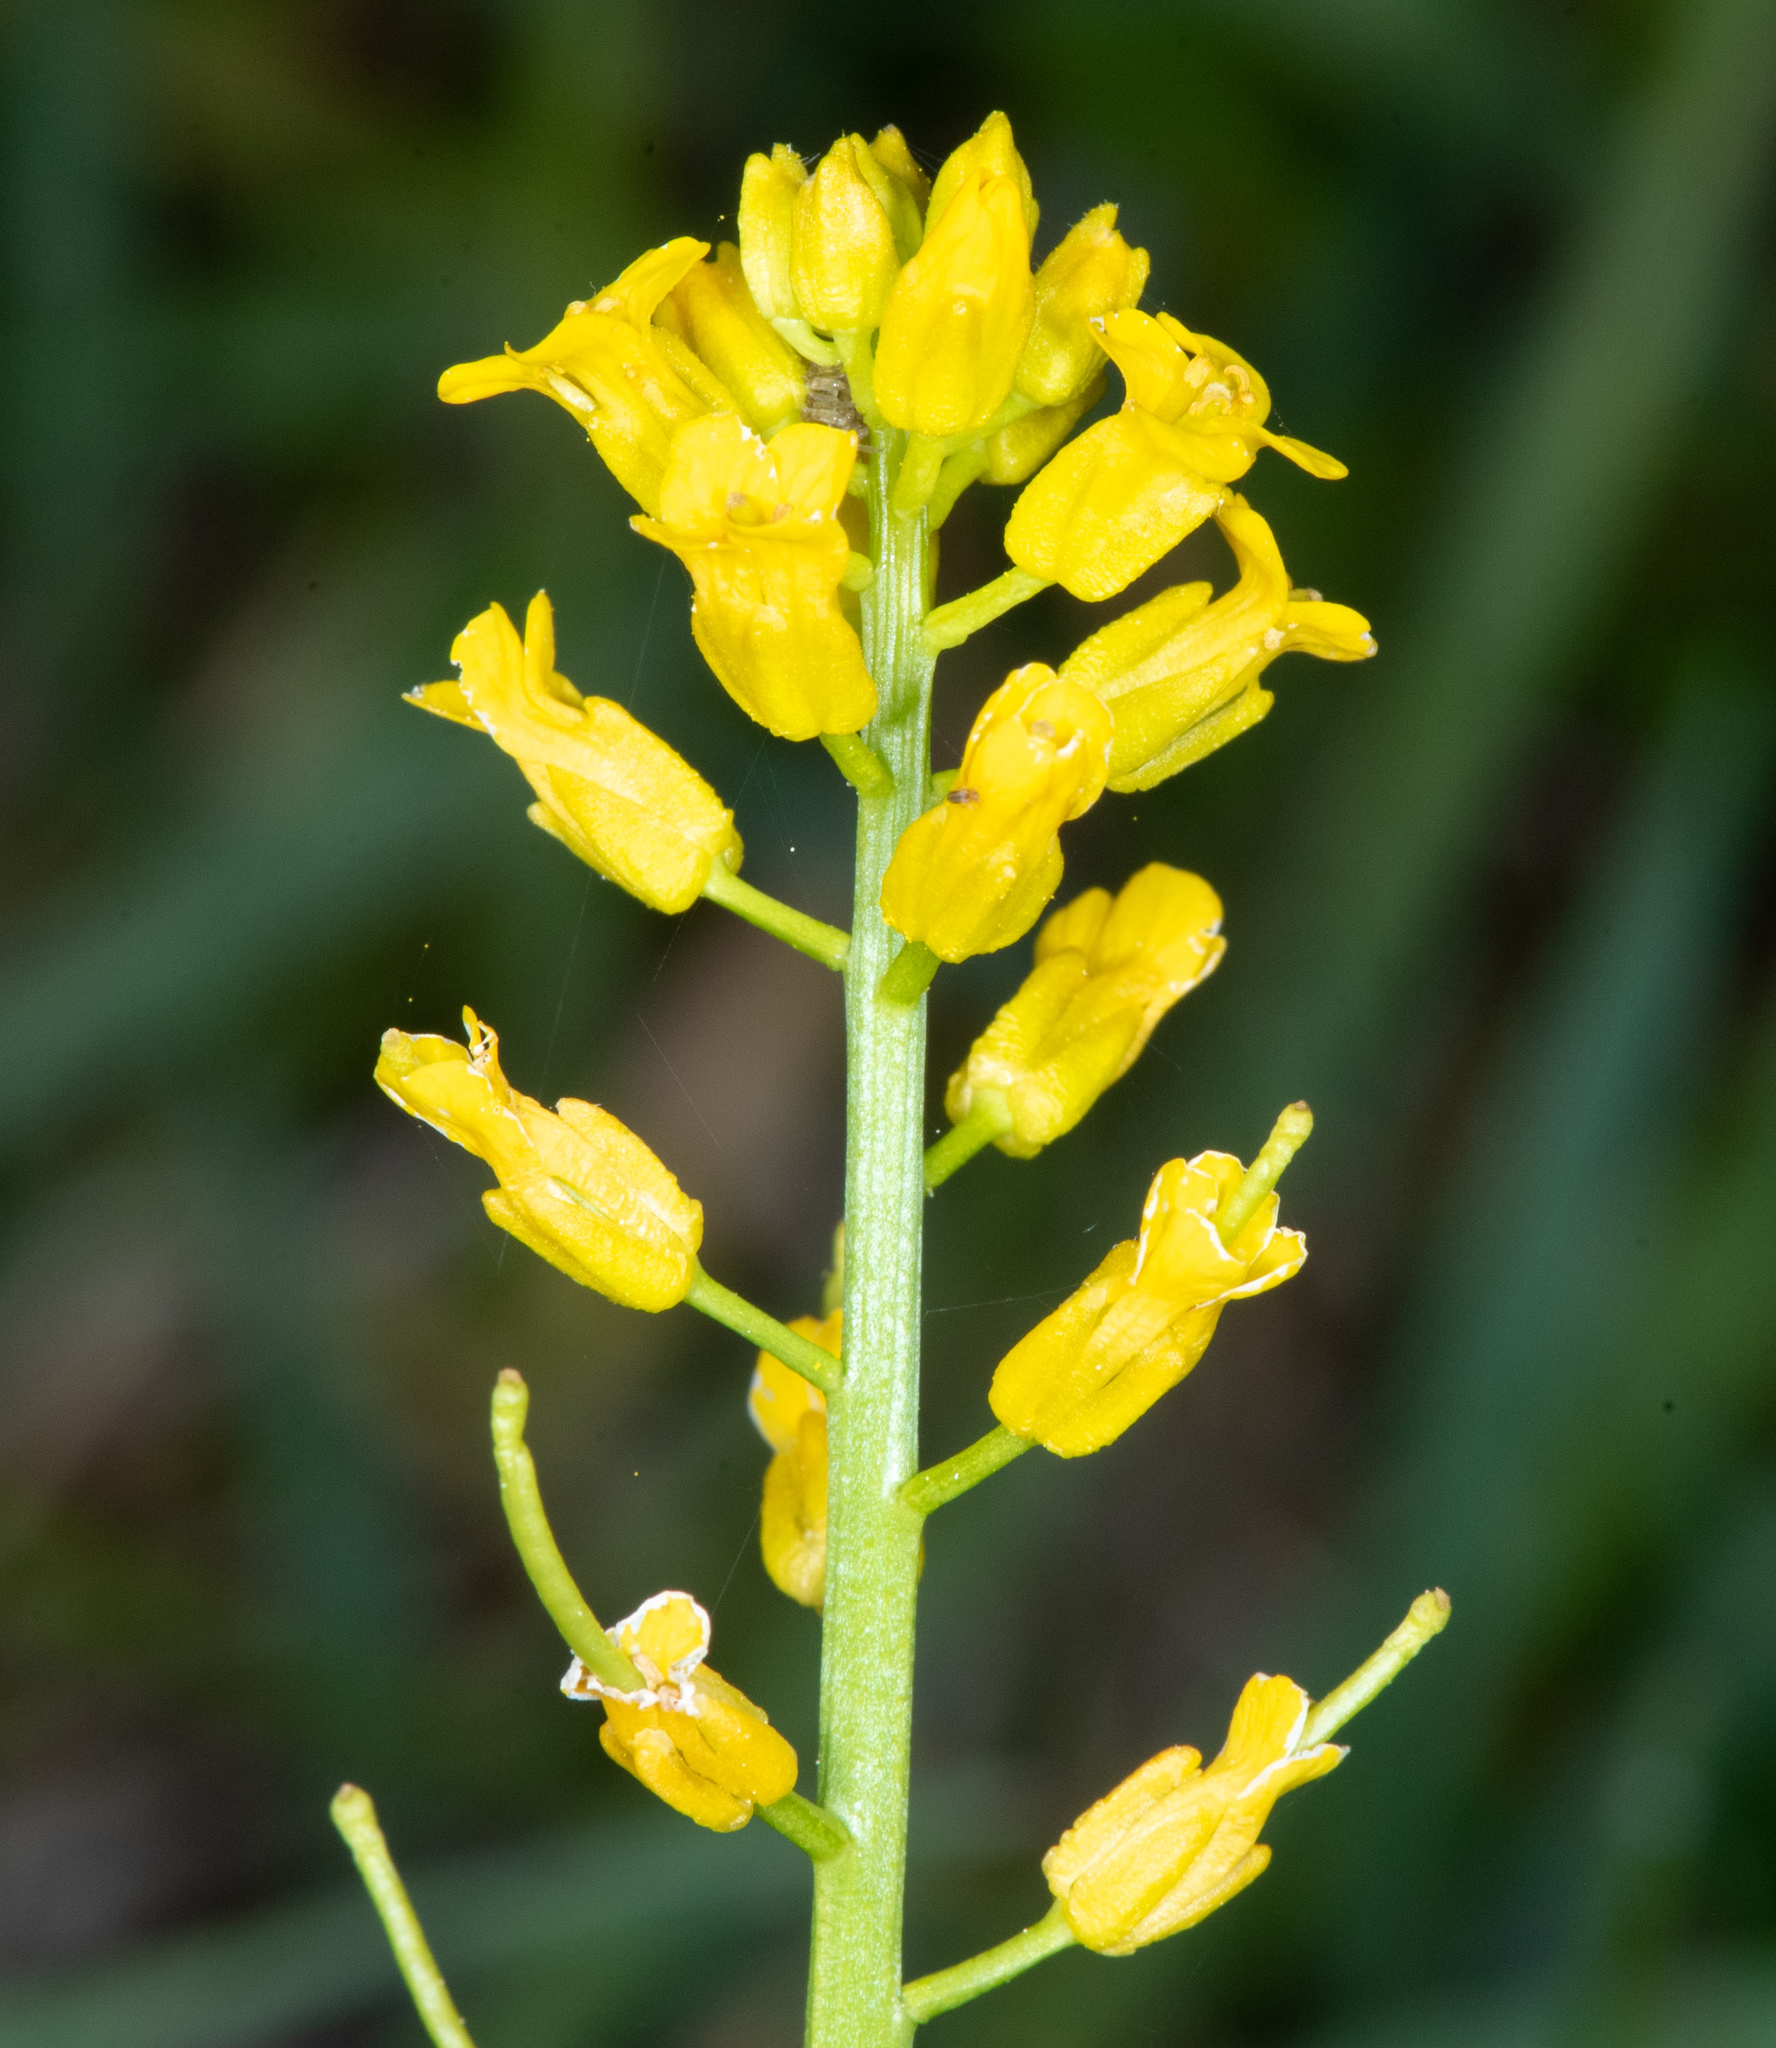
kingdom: Plantae
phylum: Tracheophyta
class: Magnoliopsida
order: Brassicales
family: Brassicaceae
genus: Barbarea
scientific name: Barbarea orthoceras
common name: American wintercress
